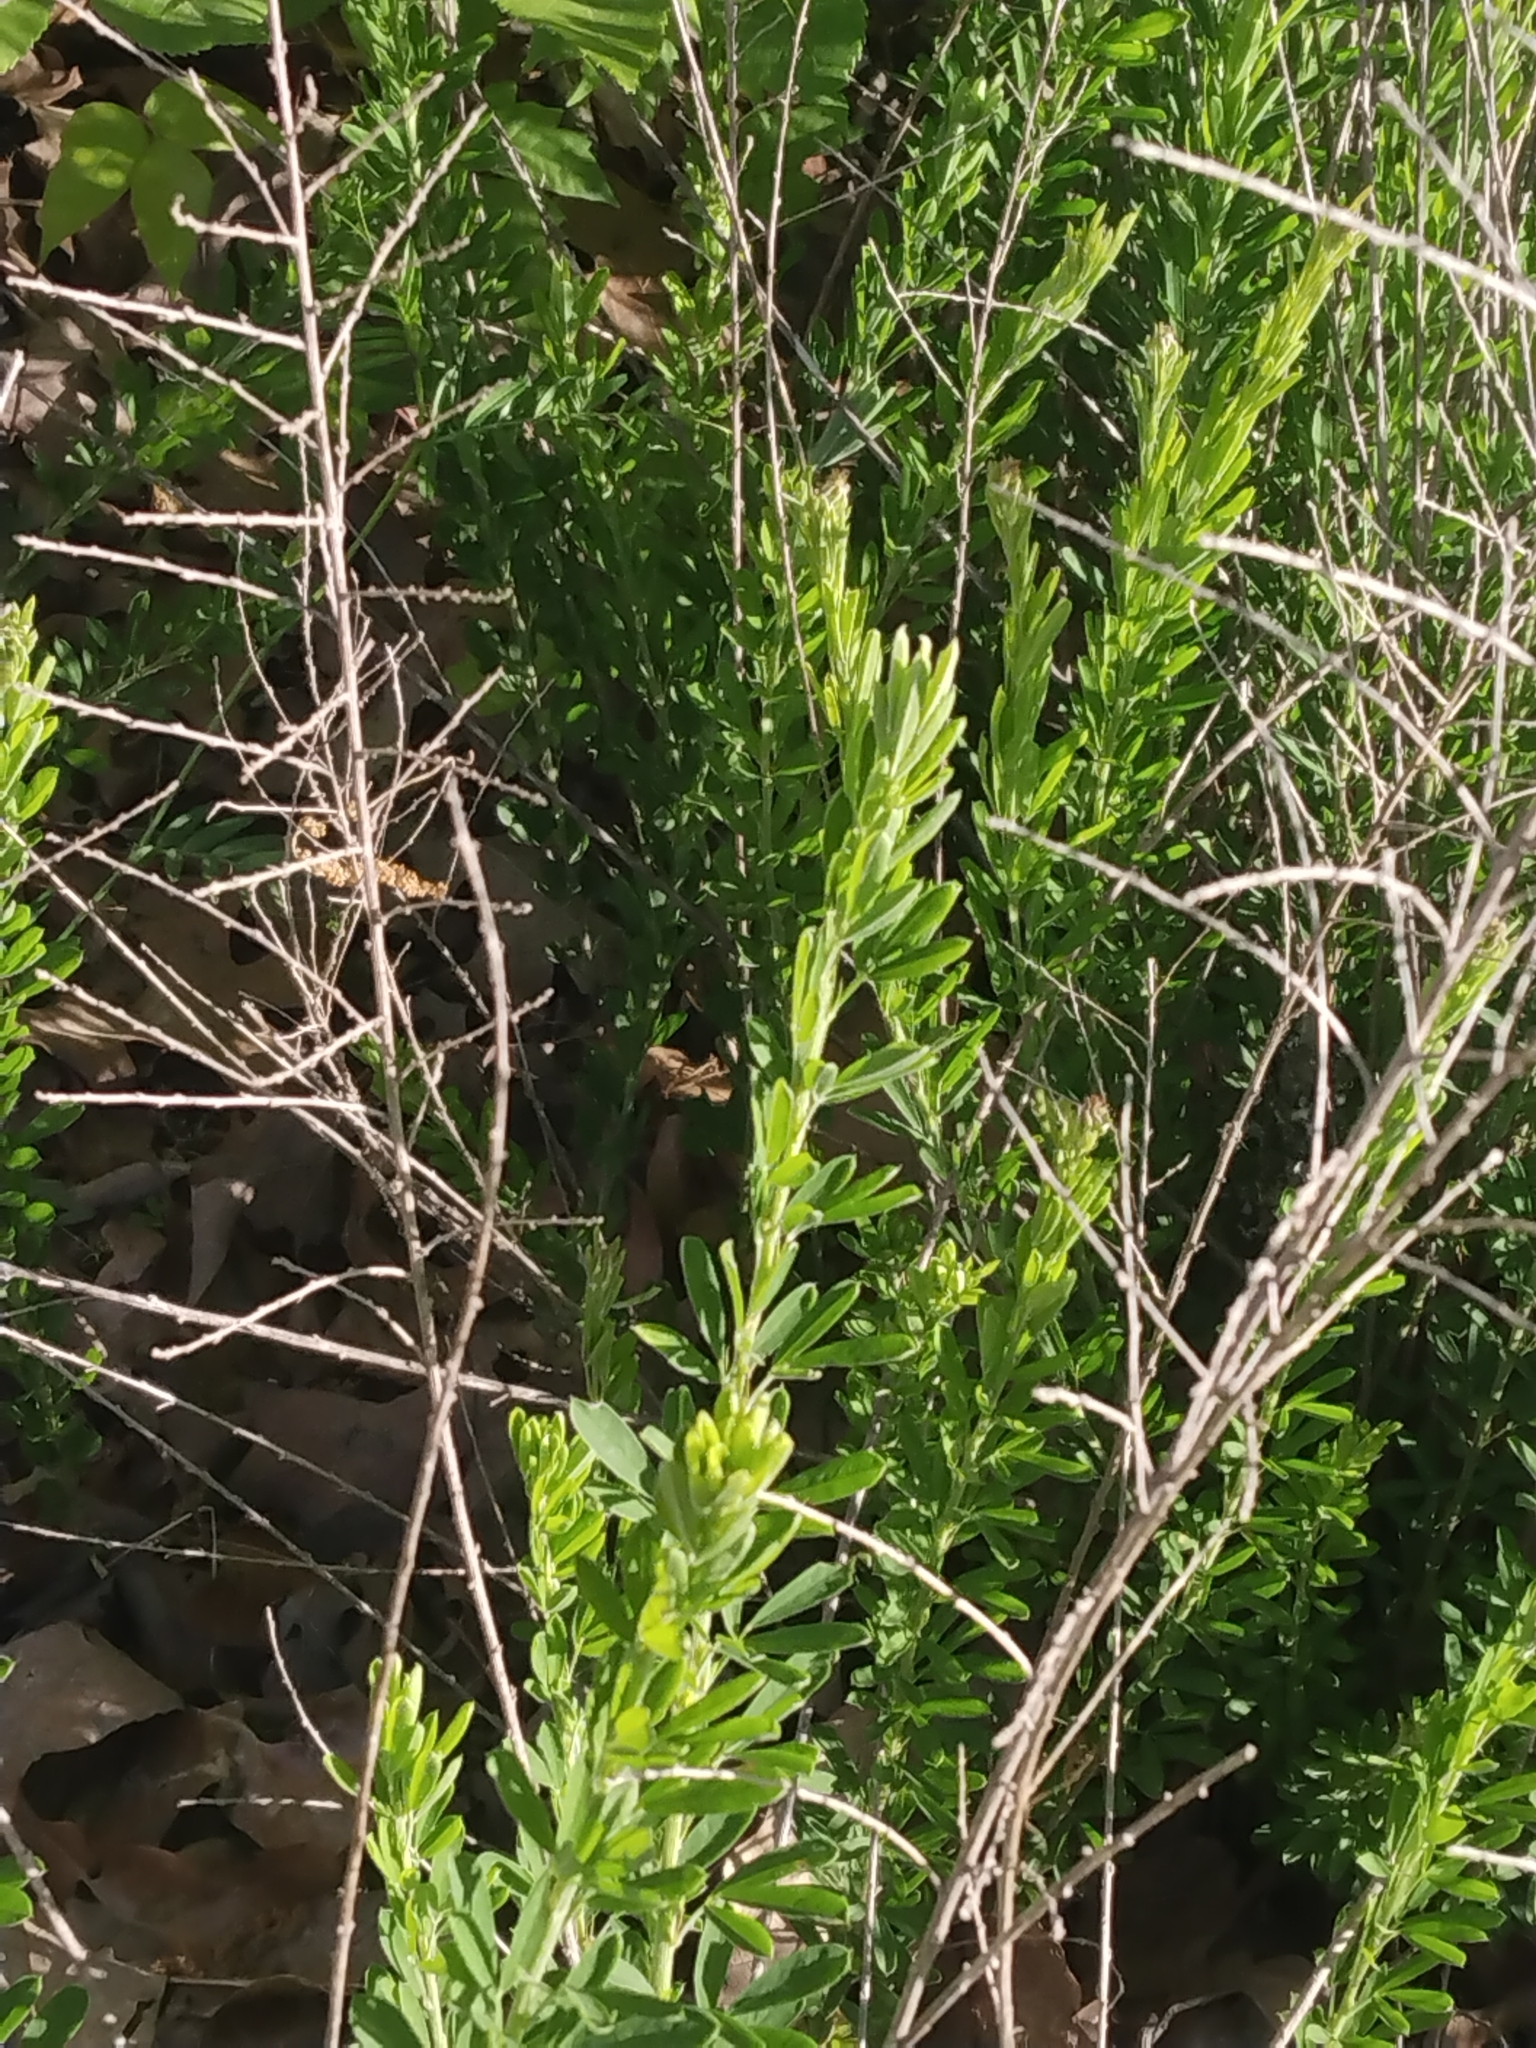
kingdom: Plantae
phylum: Tracheophyta
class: Magnoliopsida
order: Fabales
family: Fabaceae
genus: Lespedeza
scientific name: Lespedeza cuneata
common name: Chinese bush-clover
